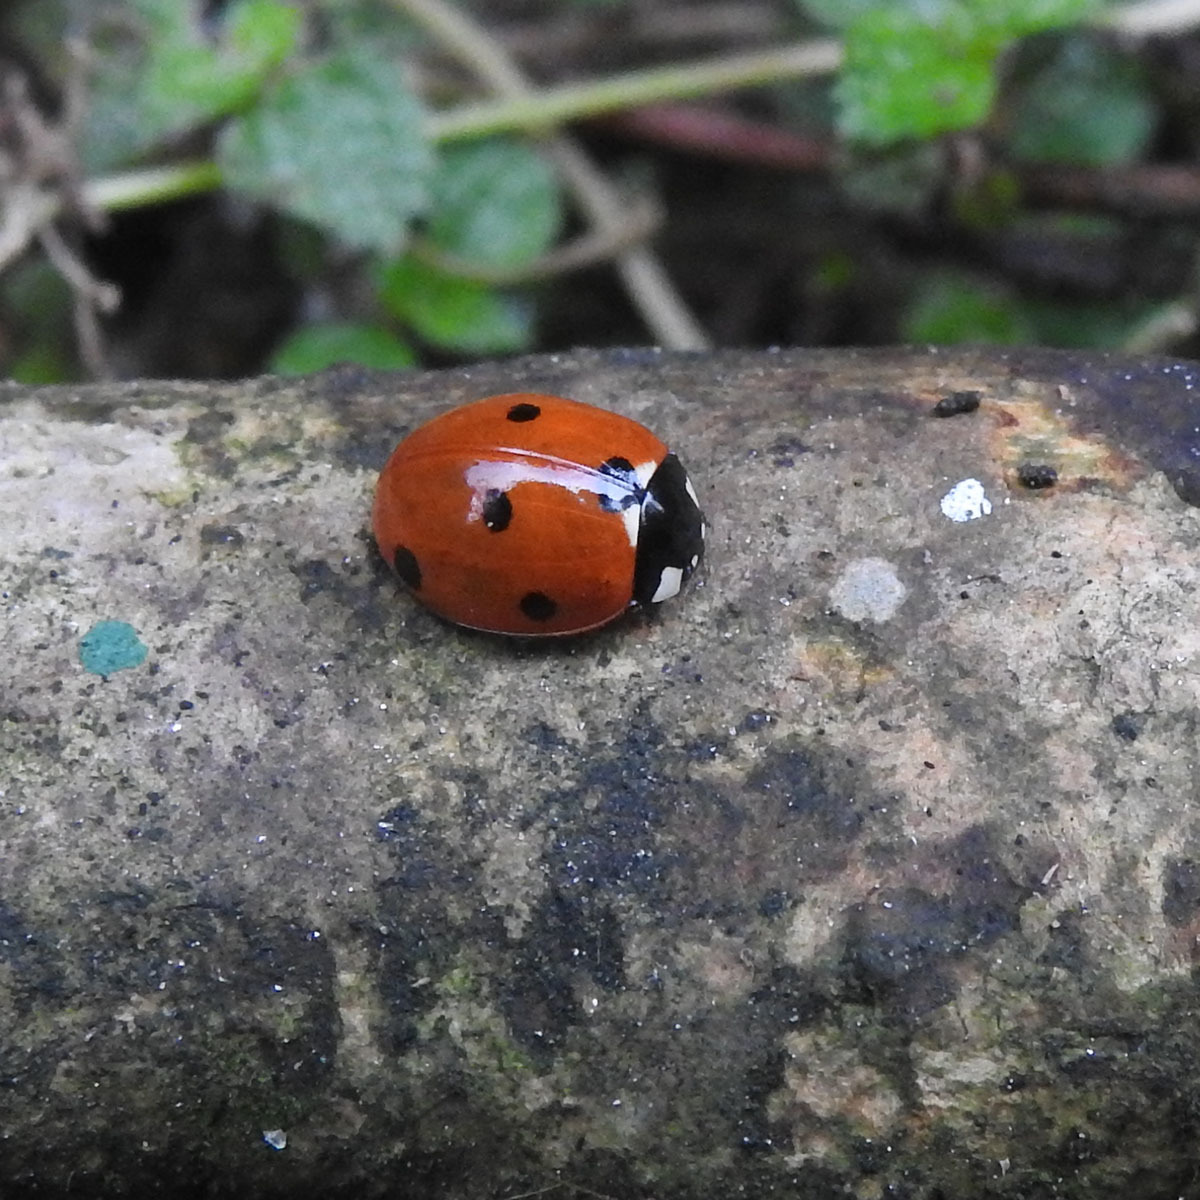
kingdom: Animalia
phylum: Arthropoda
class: Insecta
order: Coleoptera
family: Coccinellidae
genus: Coccinella
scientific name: Coccinella septempunctata
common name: Sevenspotted lady beetle
